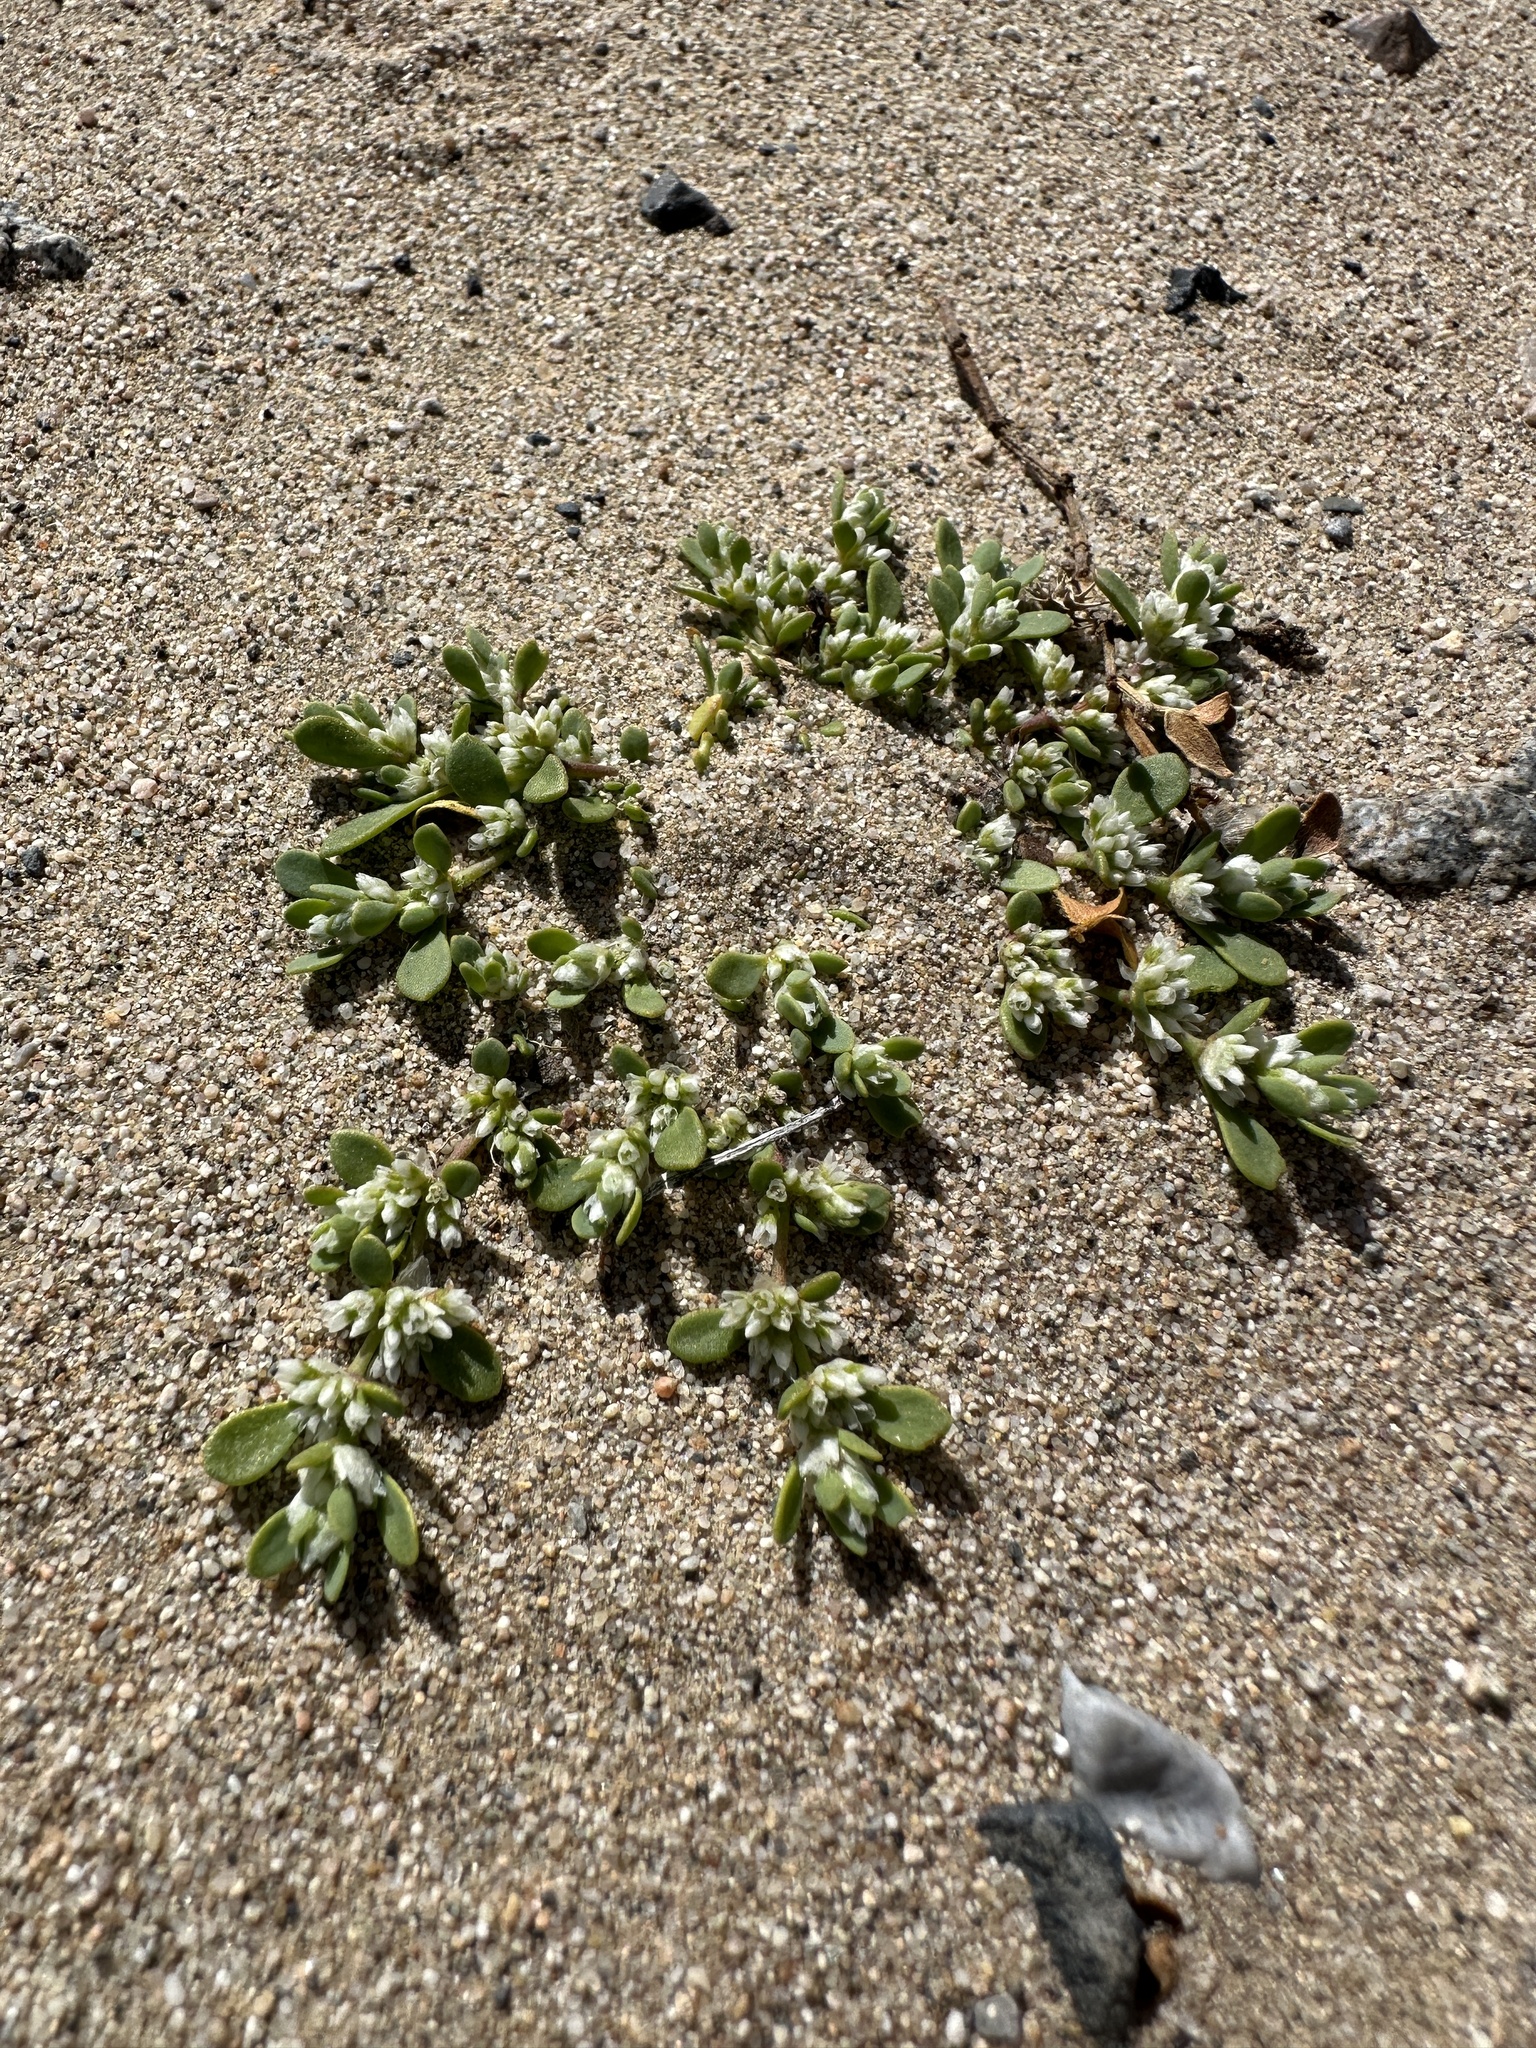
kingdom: Plantae
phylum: Tracheophyta
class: Magnoliopsida
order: Caryophyllales
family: Caryophyllaceae
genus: Achyronychia
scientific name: Achyronychia cooperi
